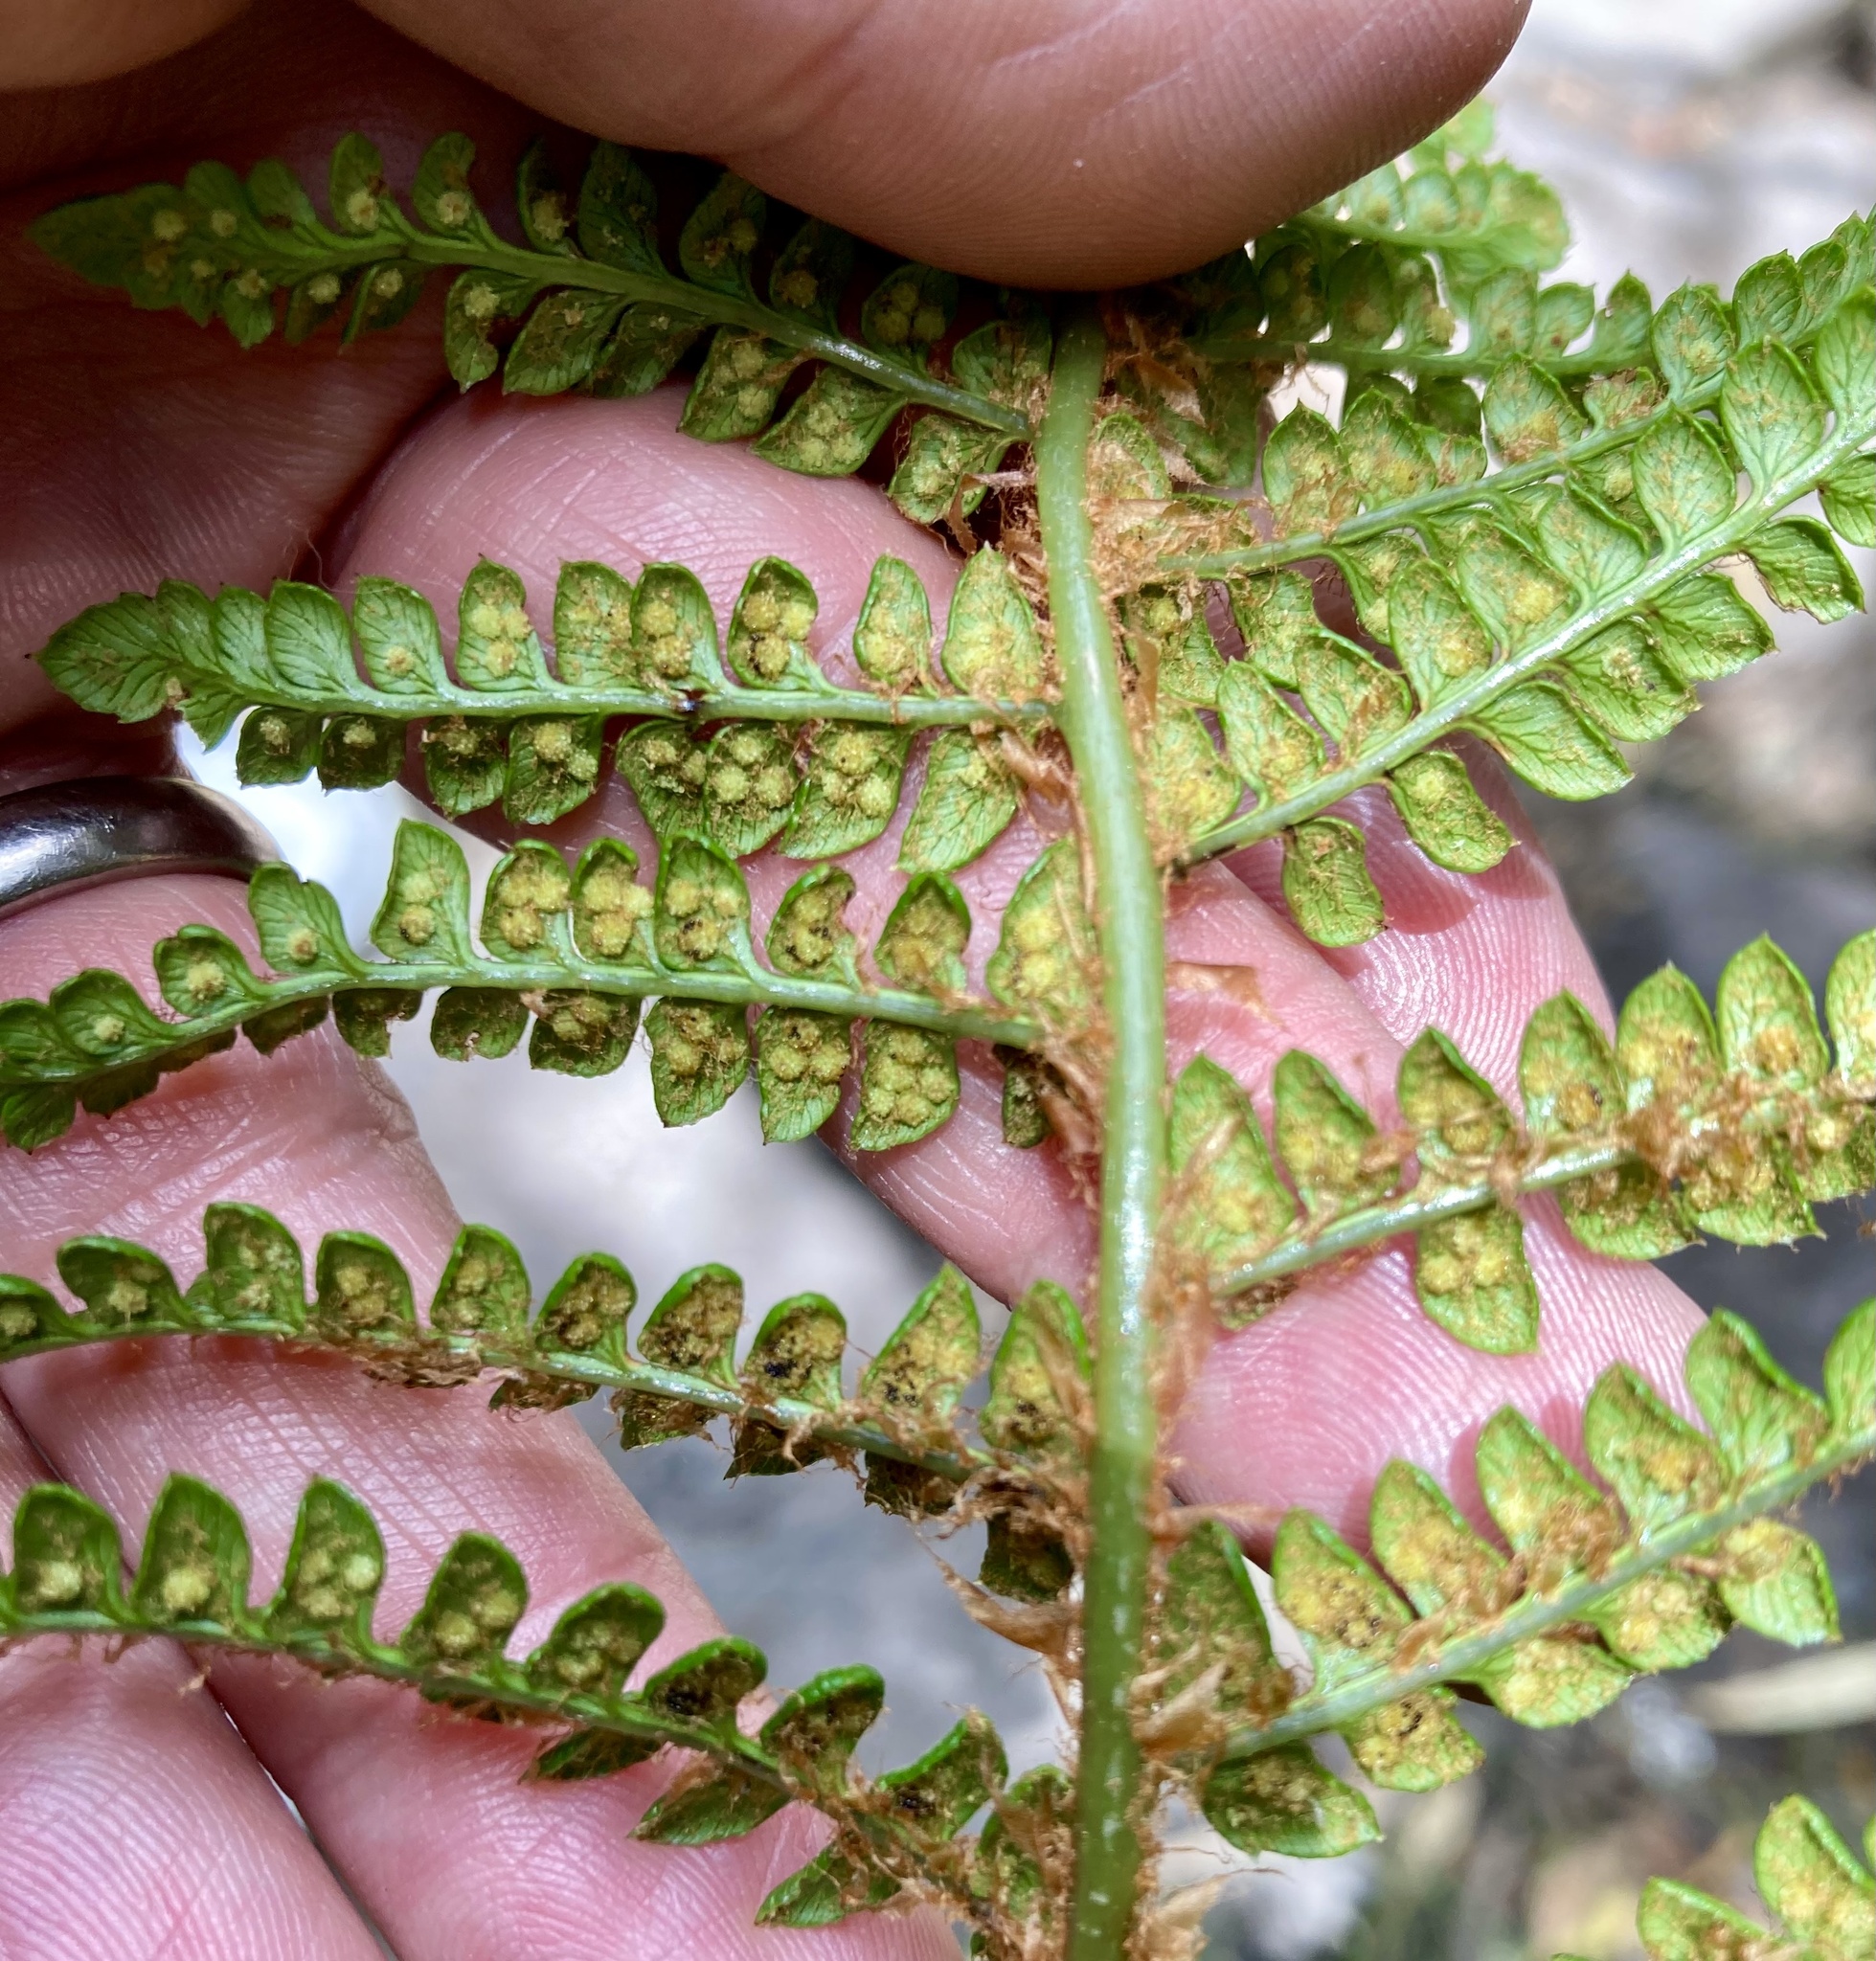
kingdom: Plantae
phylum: Tracheophyta
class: Polypodiopsida
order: Polypodiales
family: Dryopteridaceae
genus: Polystichum
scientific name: Polystichum orbiculatum
